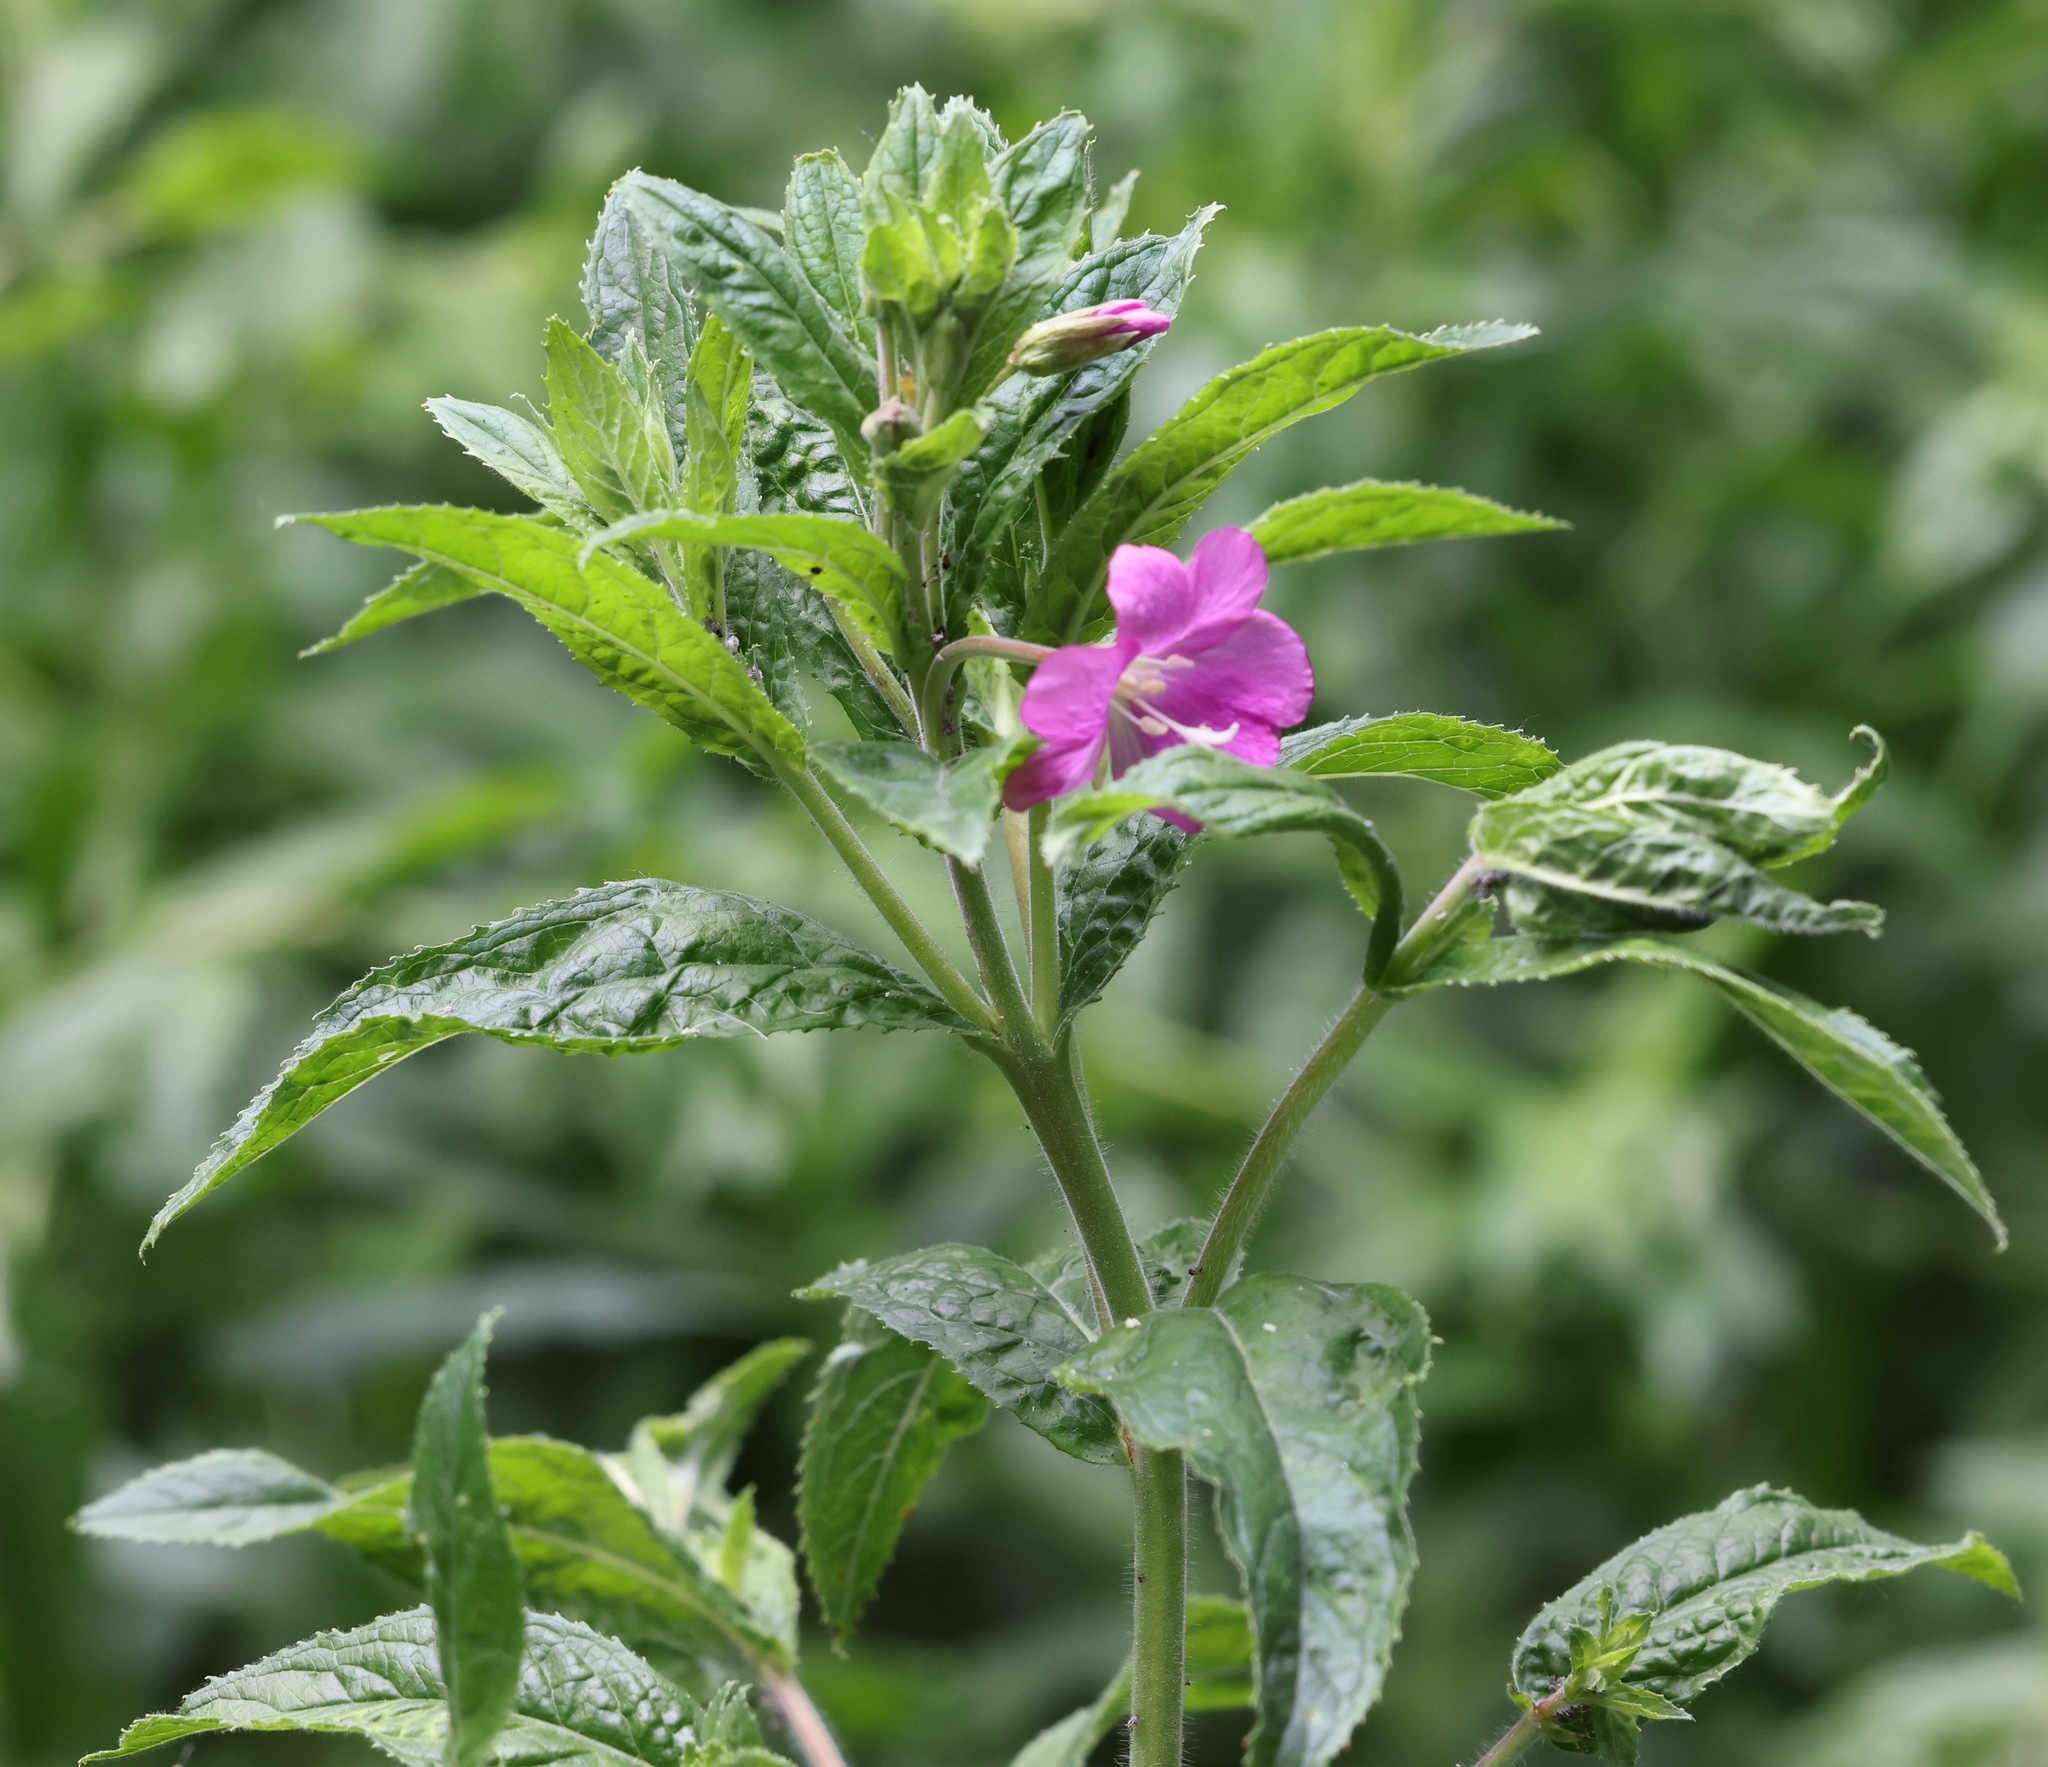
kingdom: Plantae
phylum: Tracheophyta
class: Magnoliopsida
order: Myrtales
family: Onagraceae
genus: Epilobium
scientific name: Epilobium hirsutum
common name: Great willowherb
